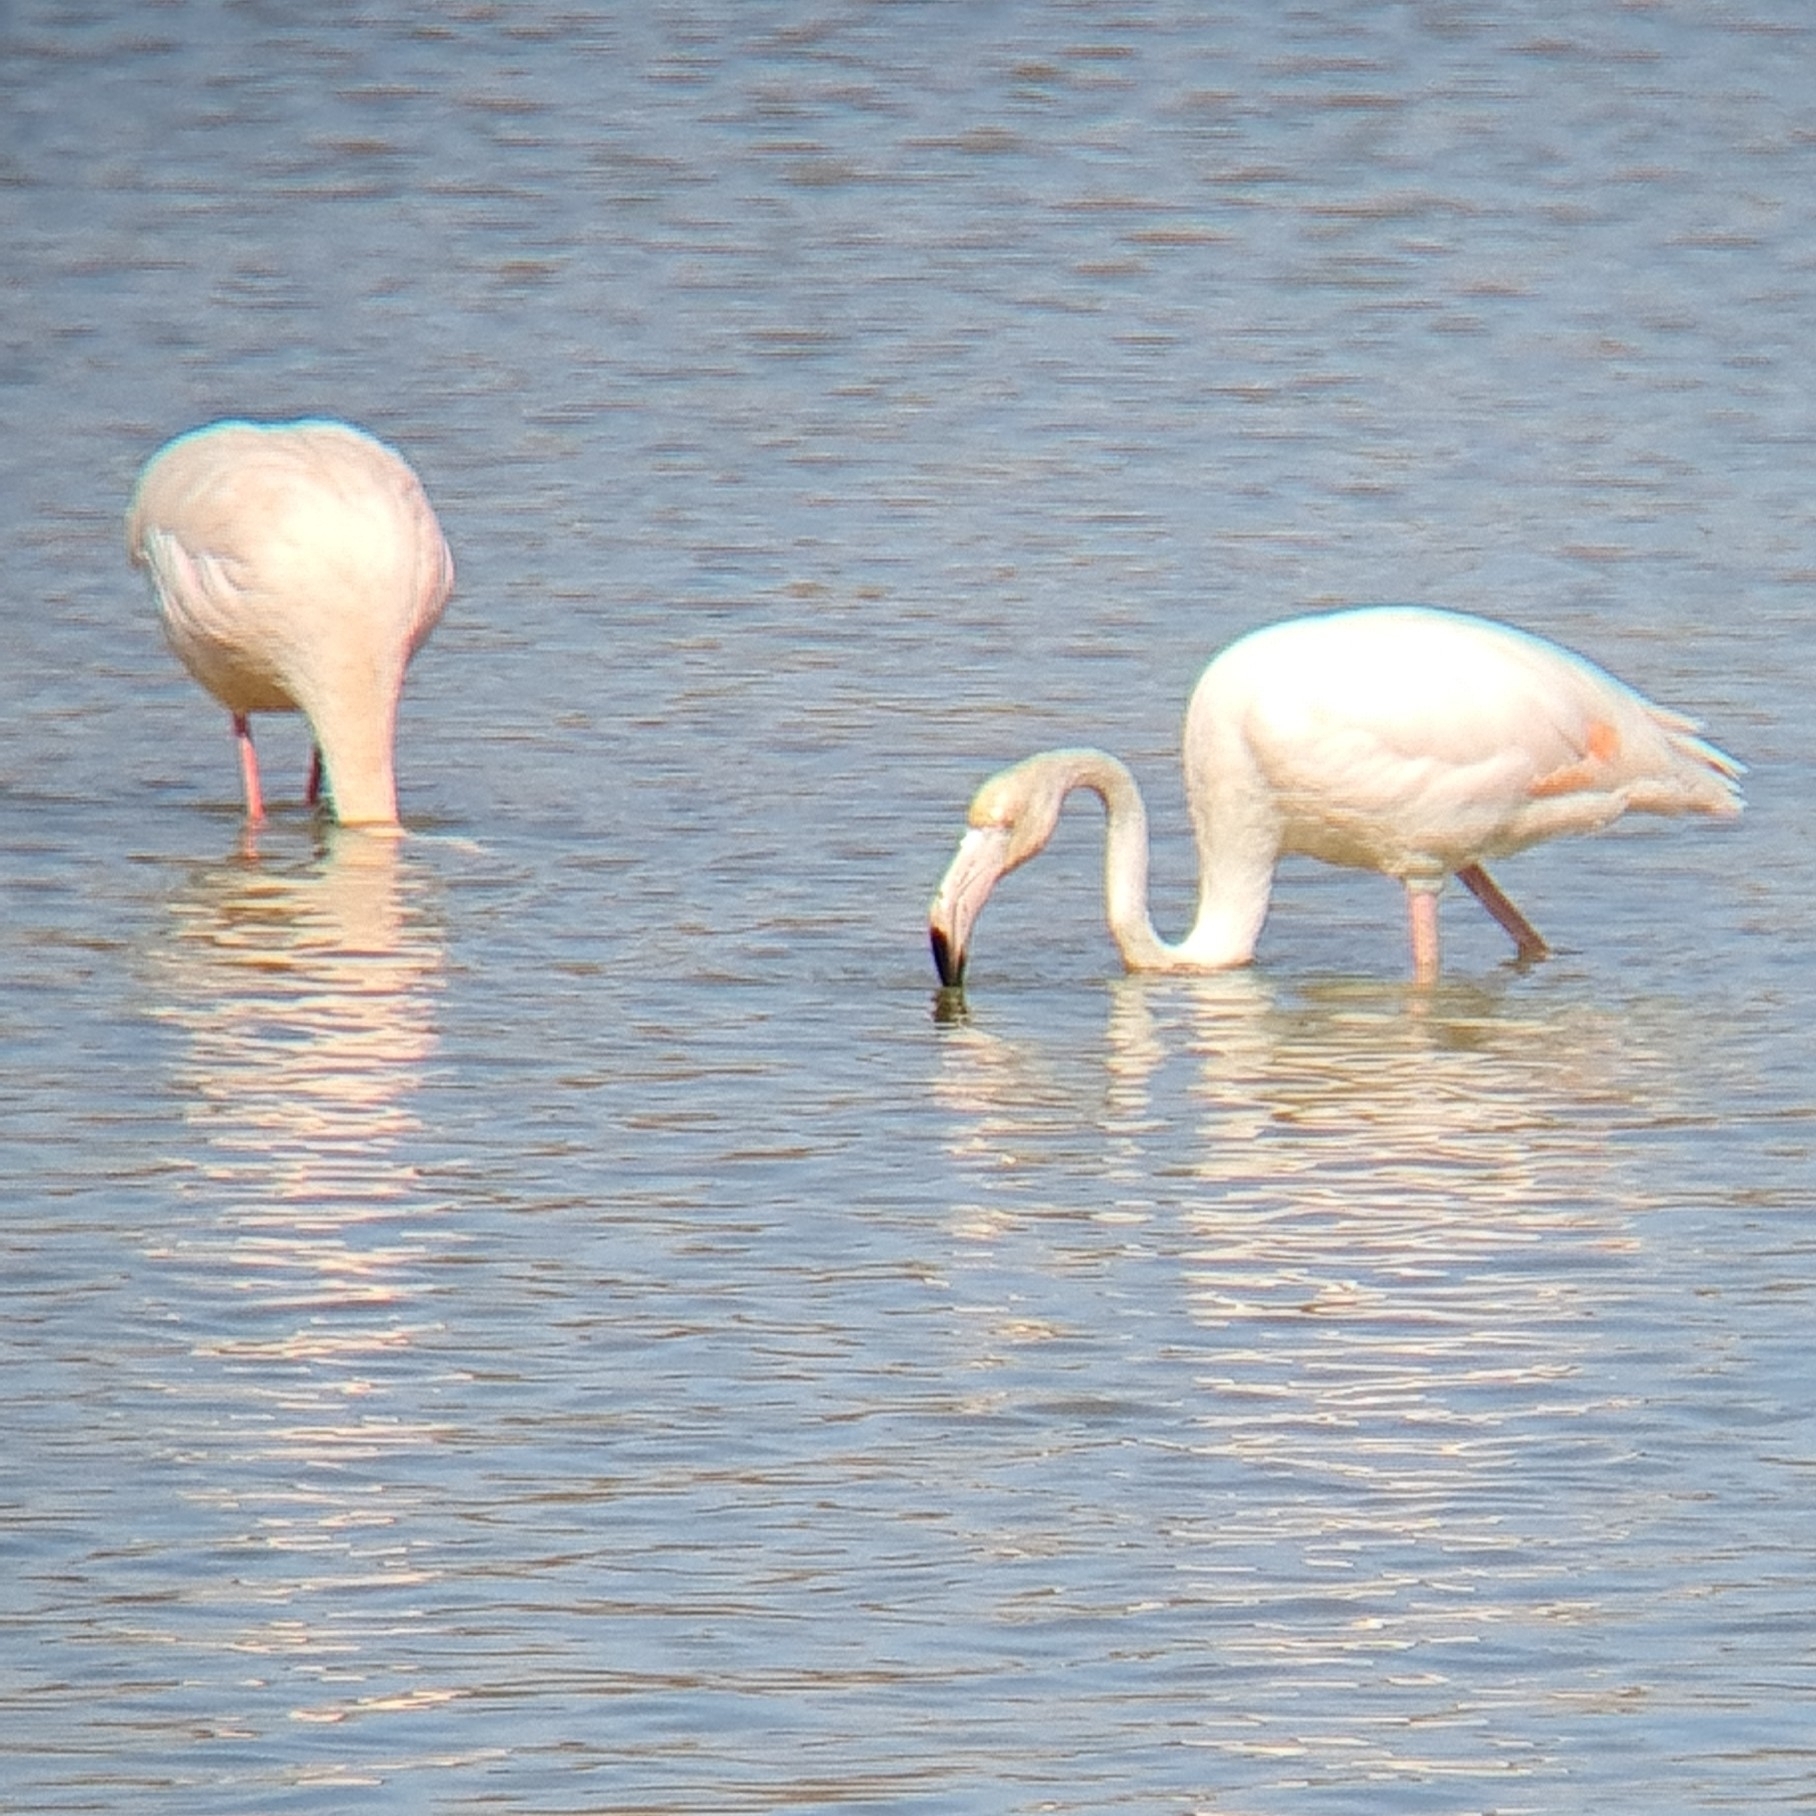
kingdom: Animalia
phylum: Chordata
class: Aves
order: Phoenicopteriformes
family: Phoenicopteridae
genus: Phoenicopterus
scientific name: Phoenicopterus roseus
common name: Greater flamingo
